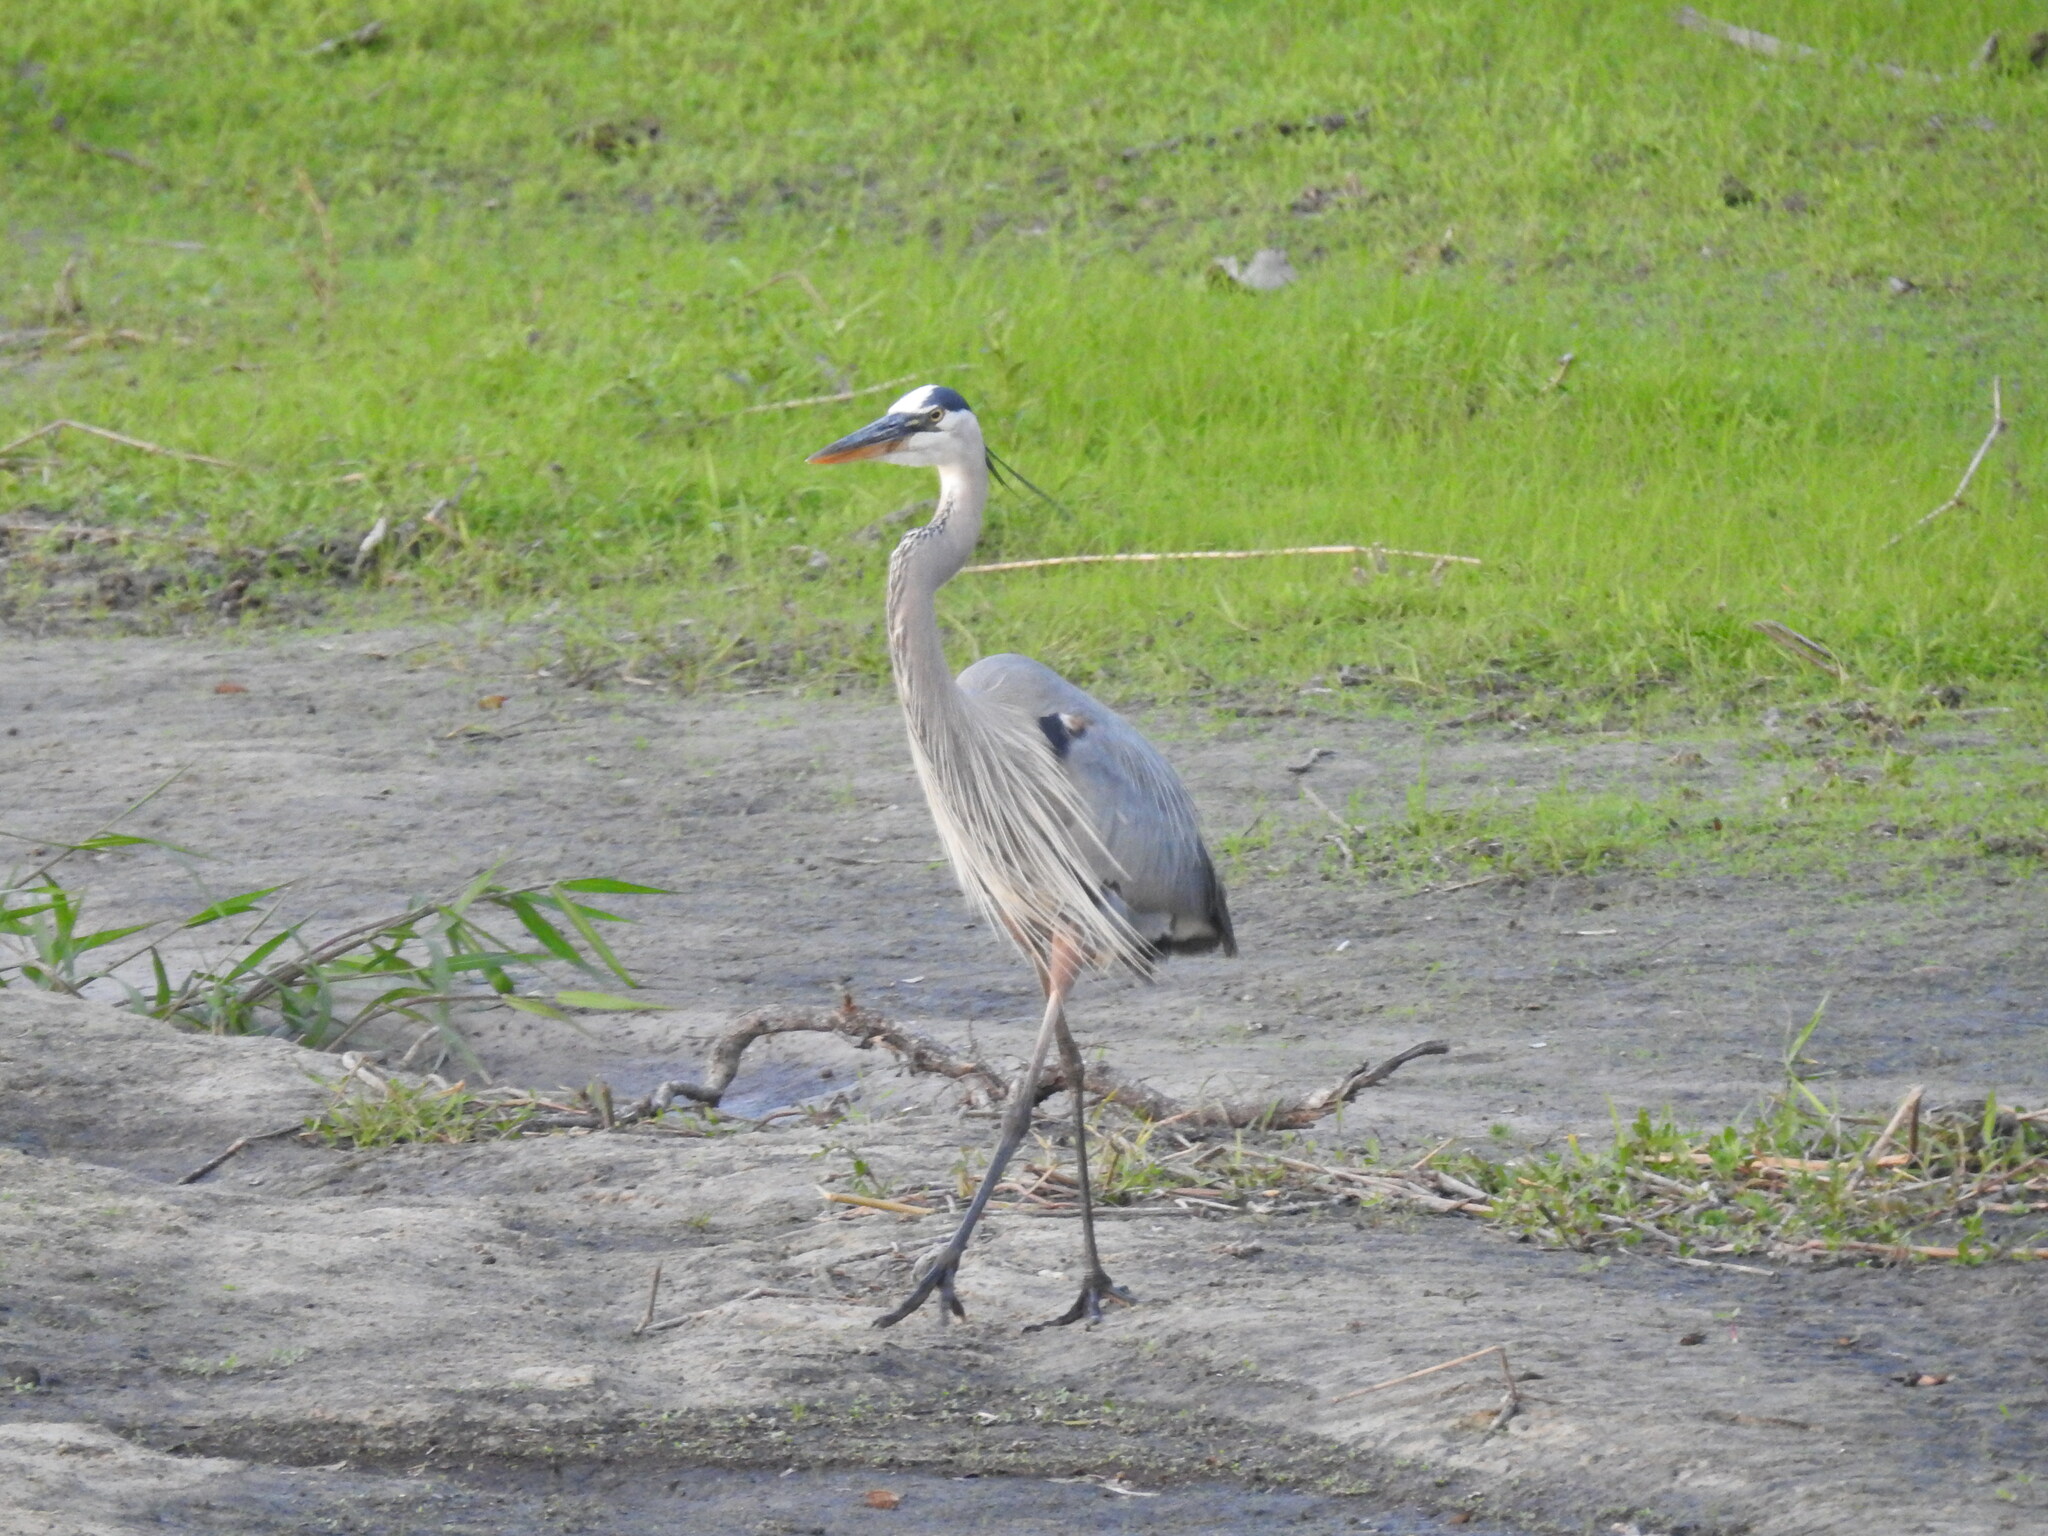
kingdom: Animalia
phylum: Chordata
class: Aves
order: Pelecaniformes
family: Ardeidae
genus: Ardea
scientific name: Ardea herodias
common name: Great blue heron
